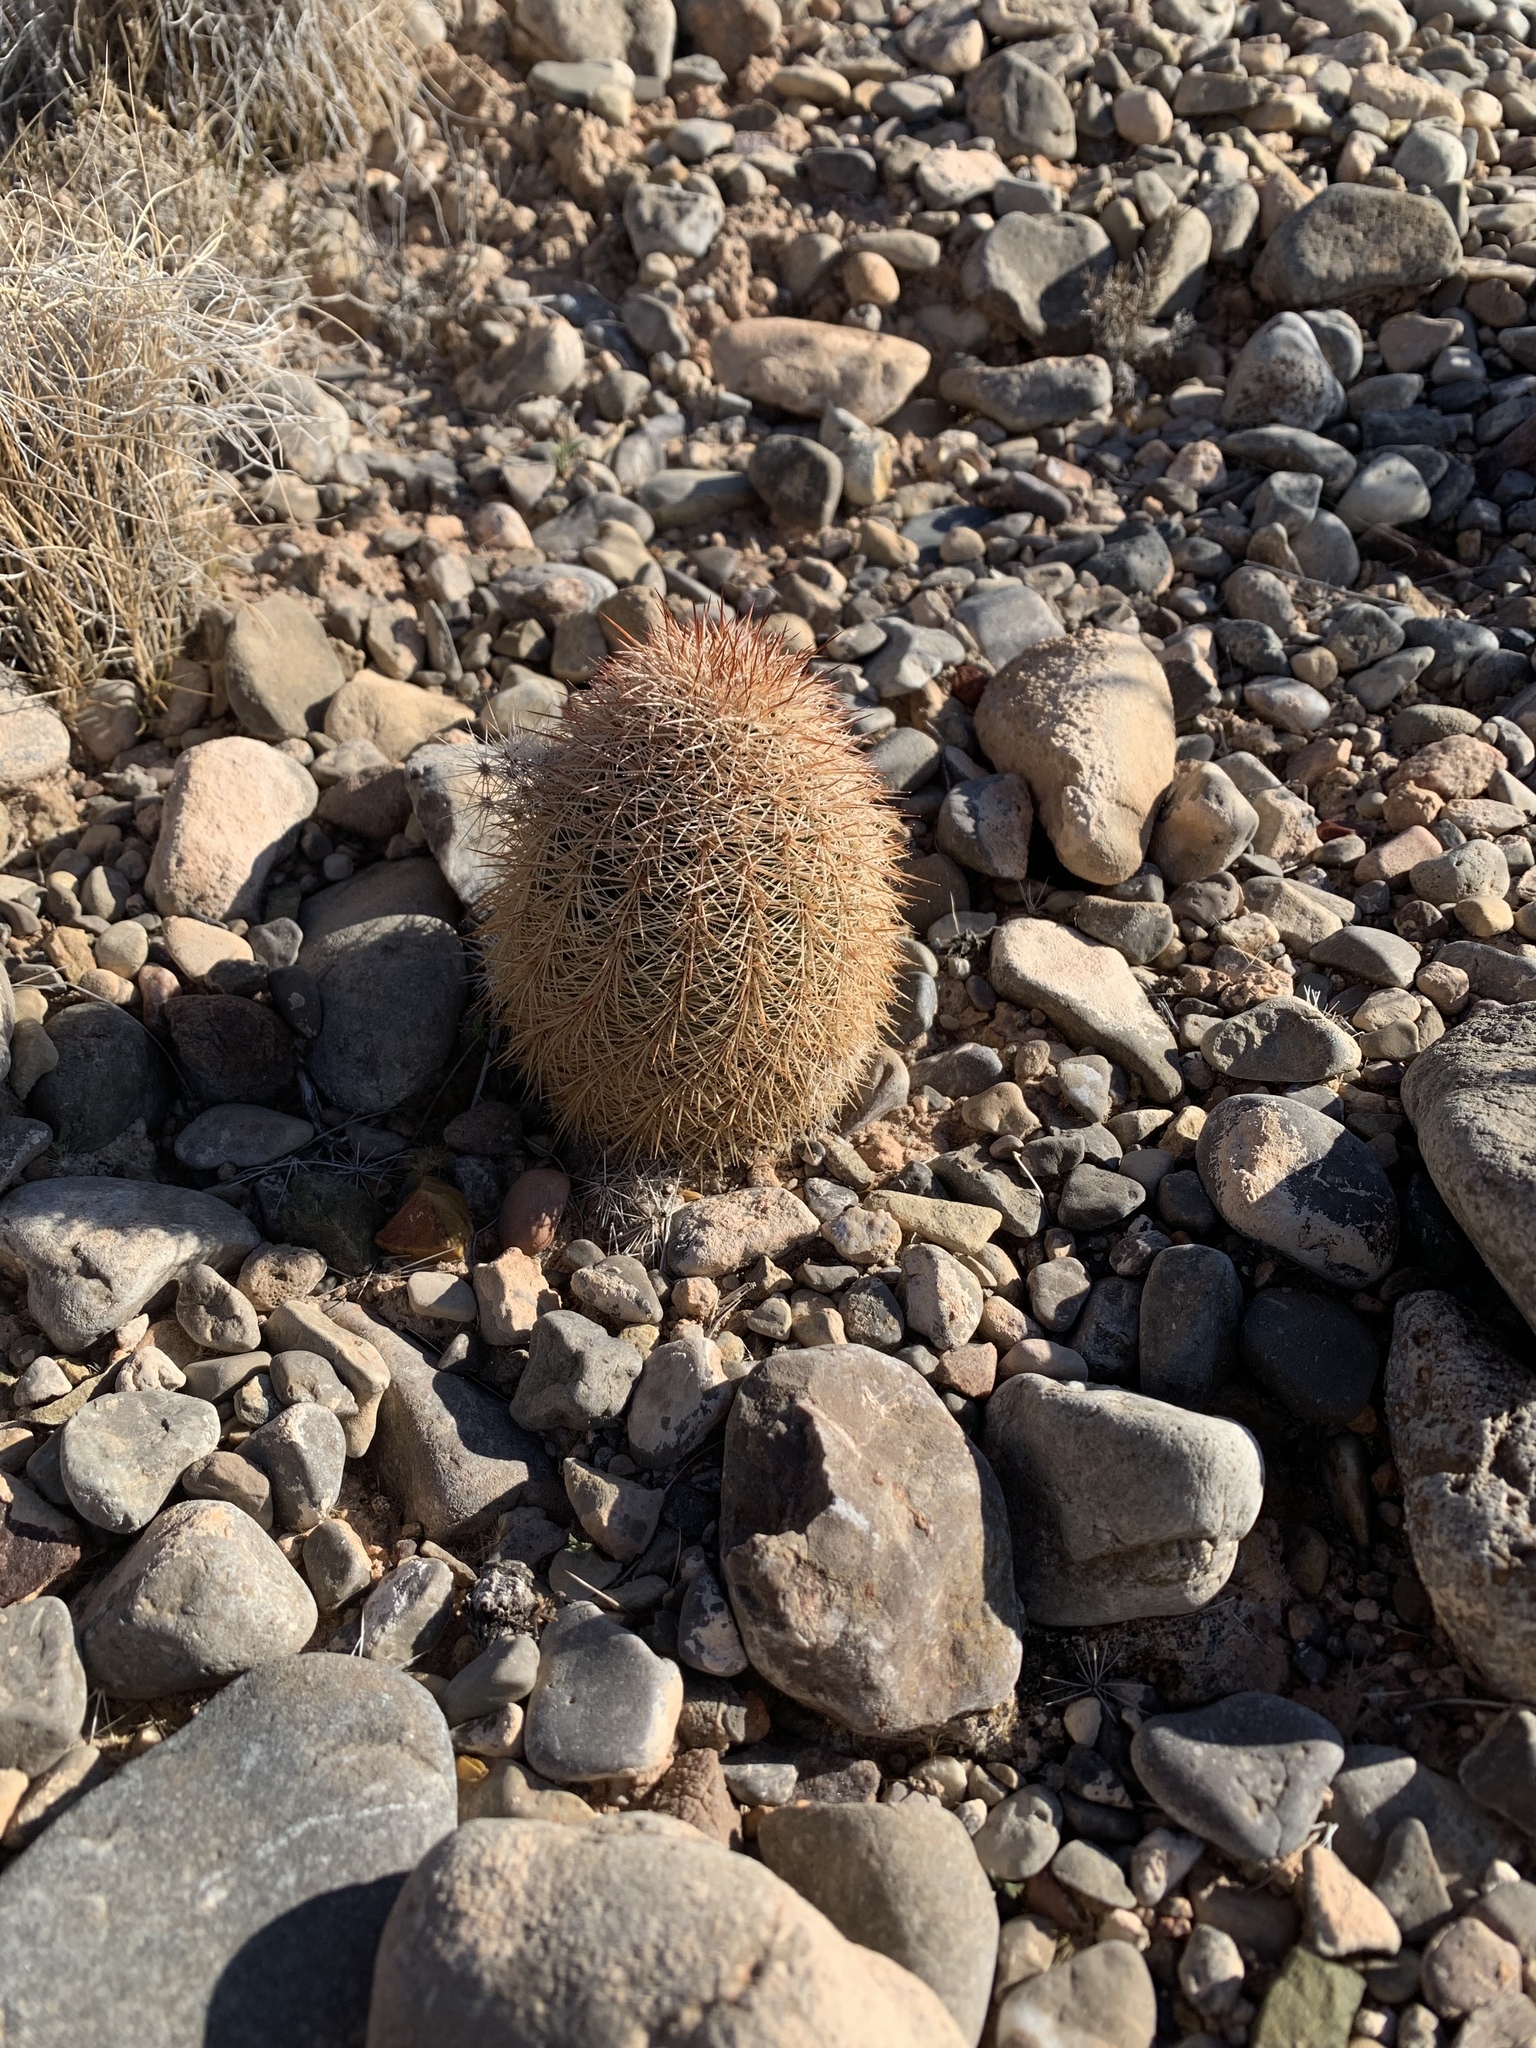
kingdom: Plantae
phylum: Tracheophyta
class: Magnoliopsida
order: Caryophyllales
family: Cactaceae
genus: Echinocereus
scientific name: Echinocereus dasyacanthus
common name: Spiny hedgehog cactus
